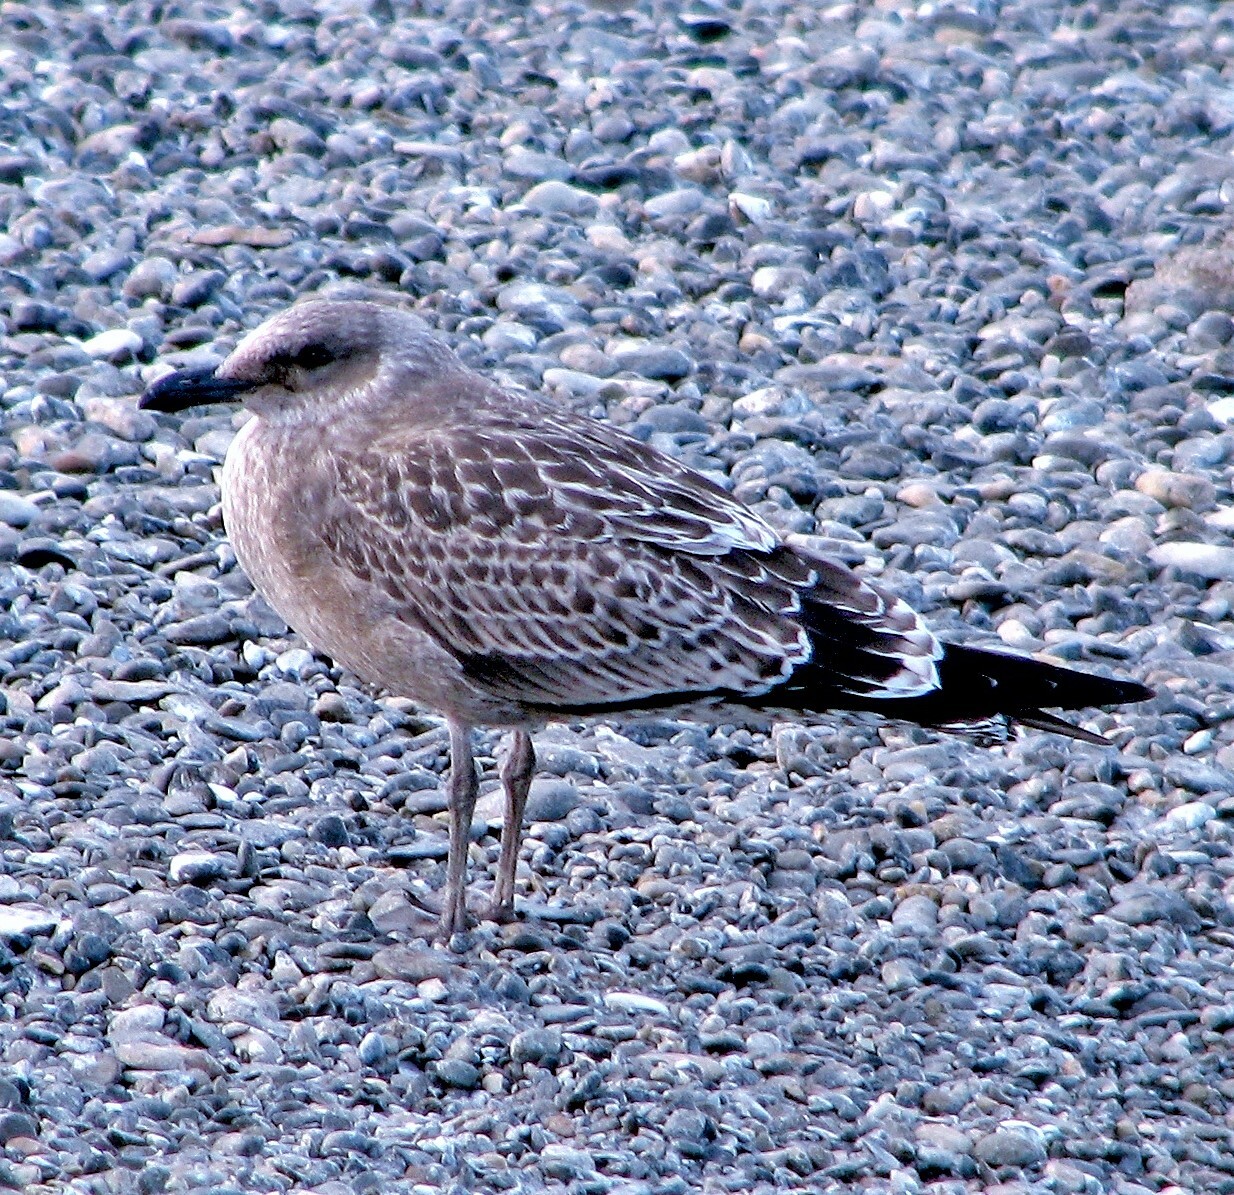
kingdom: Animalia
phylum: Chordata
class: Aves
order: Charadriiformes
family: Laridae
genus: Larus
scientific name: Larus dominicanus
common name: Kelp gull
